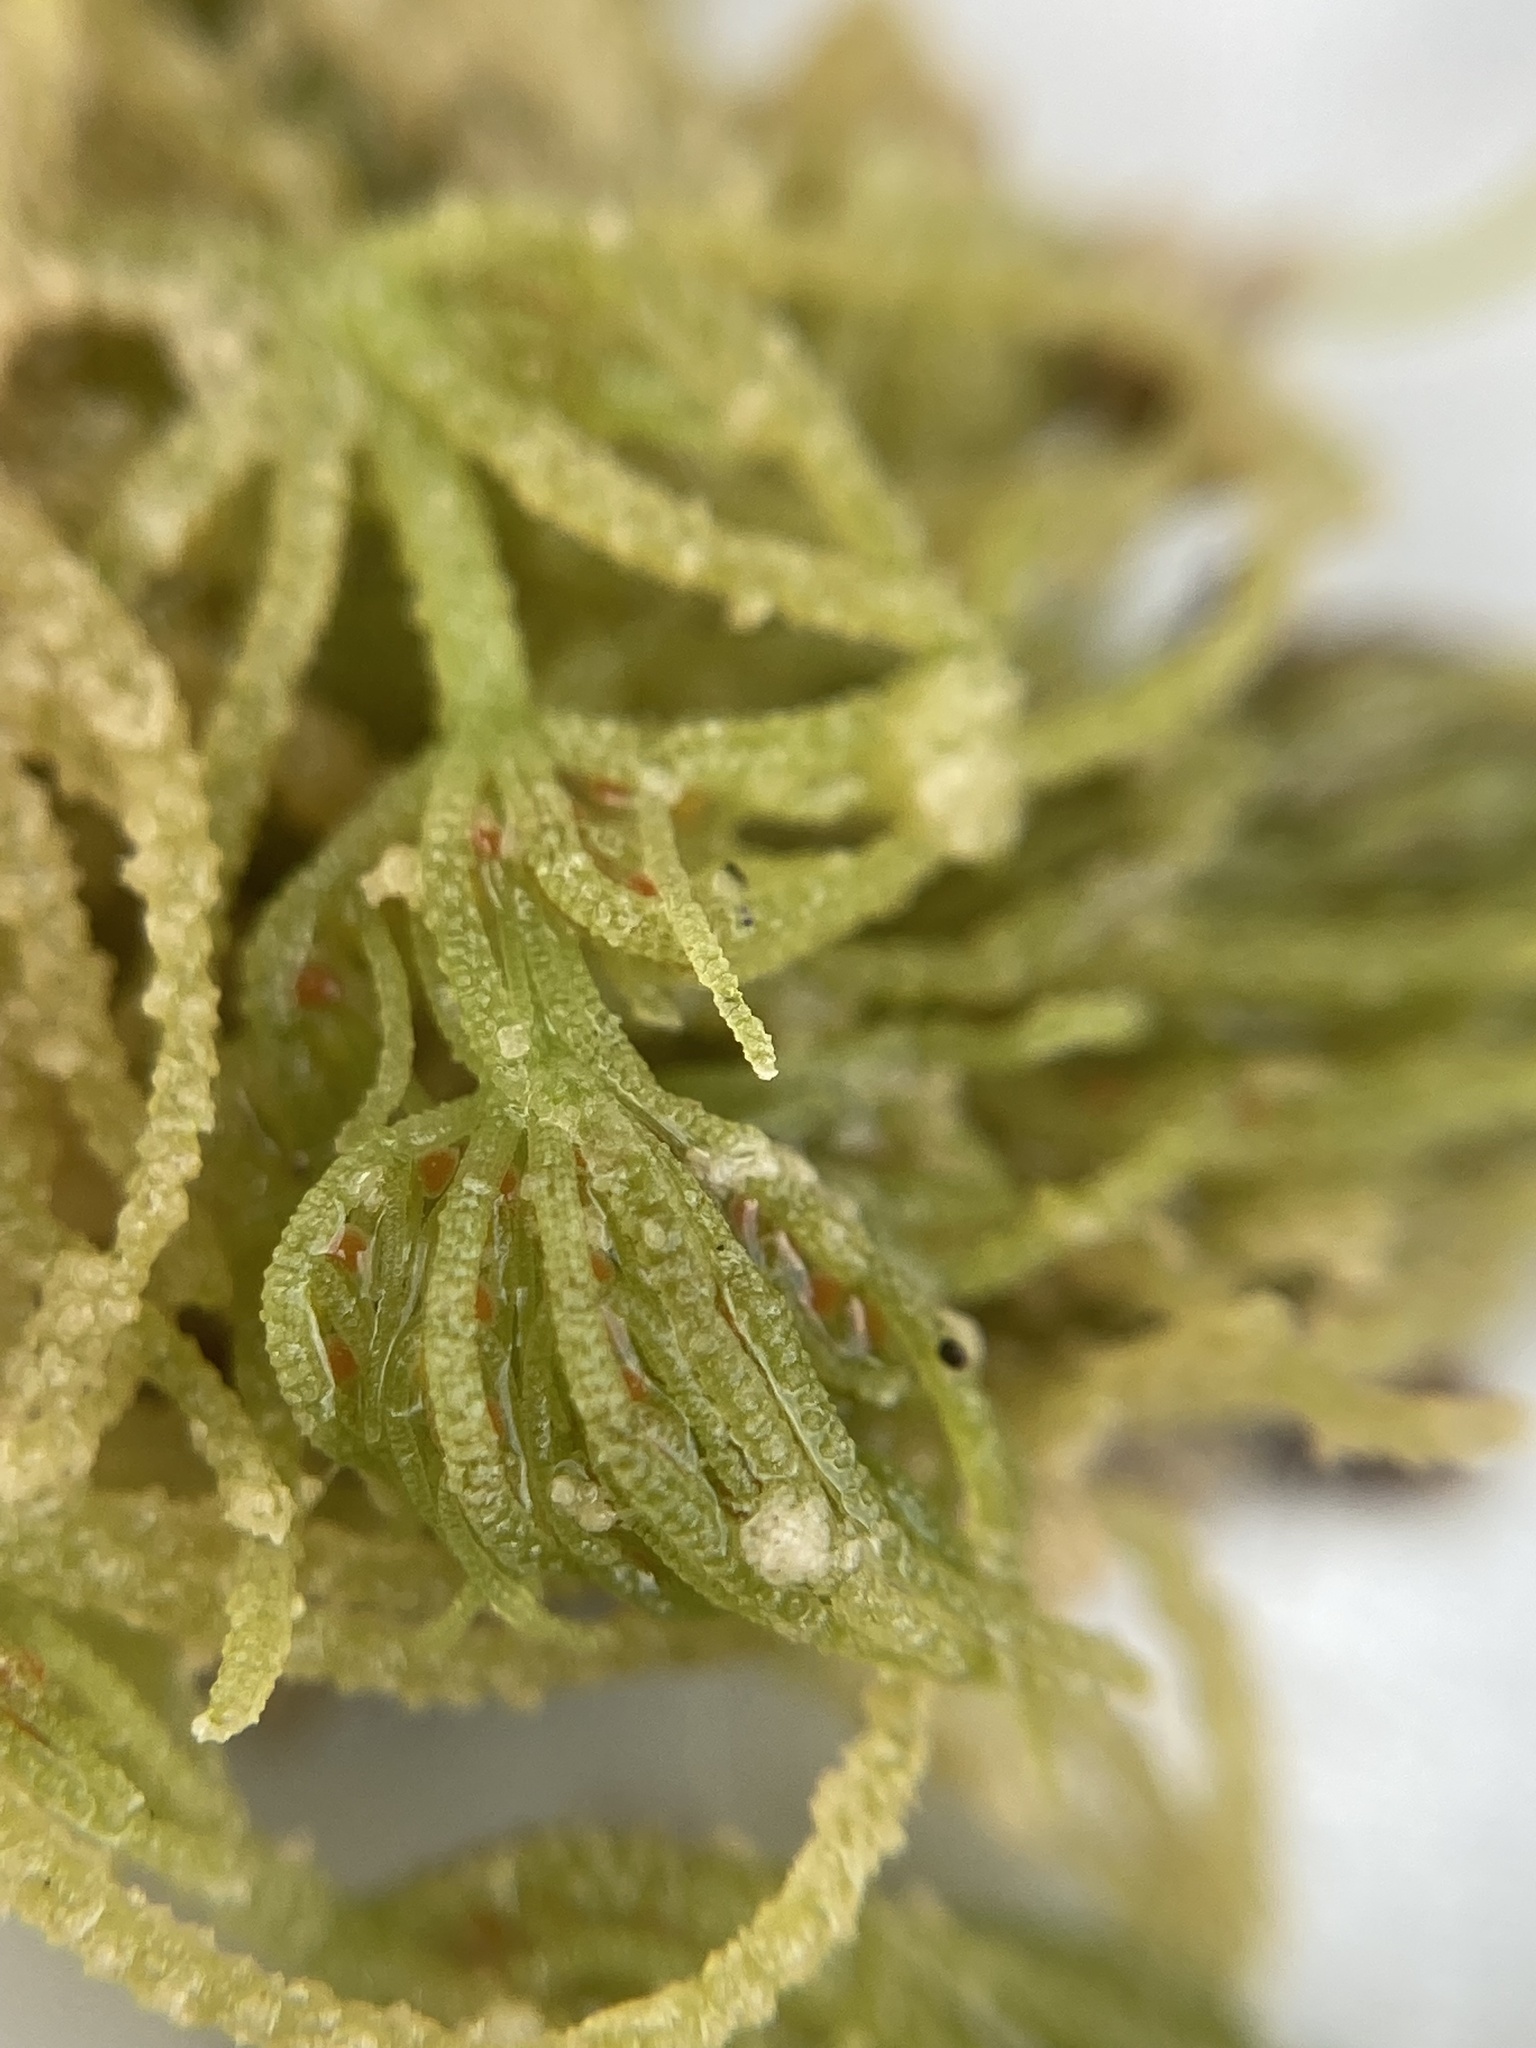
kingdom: Plantae
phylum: Charophyta
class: Charophyceae
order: Charales
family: Characeae
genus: Chara
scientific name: Chara vulgaris
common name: Common stonewort
